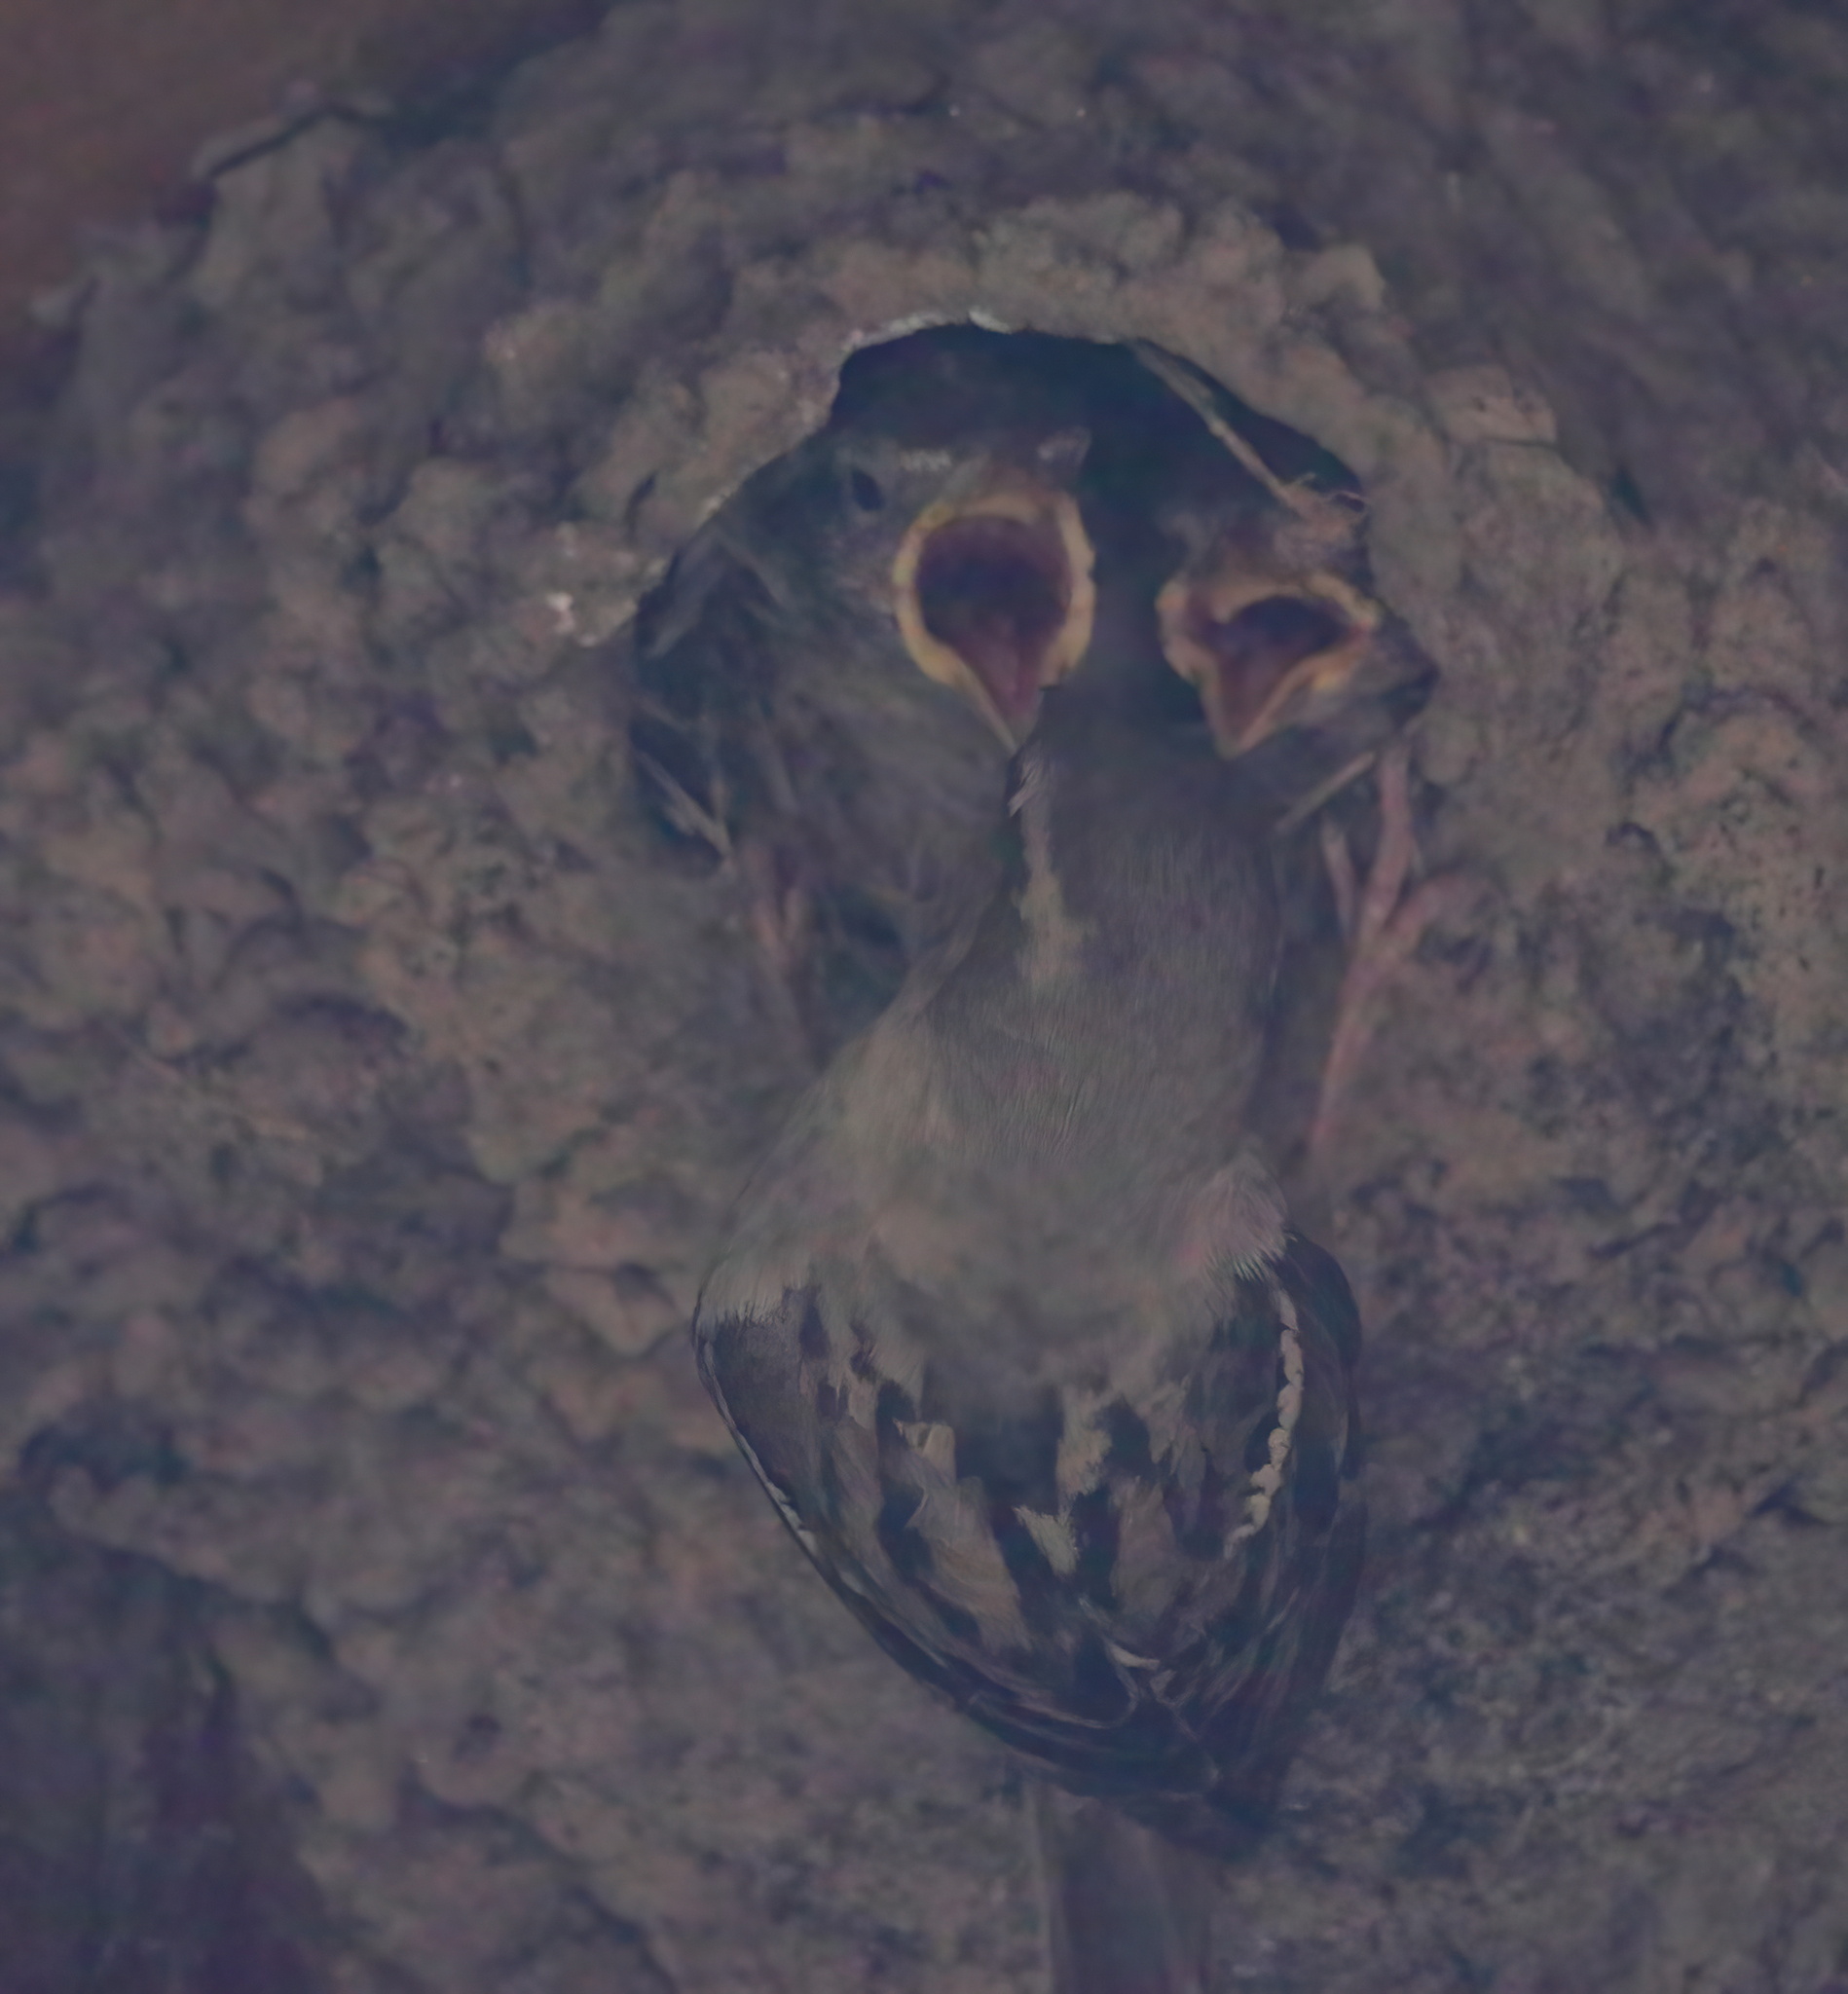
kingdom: Animalia
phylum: Chordata
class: Aves
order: Passeriformes
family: Passeridae
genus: Passer
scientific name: Passer domesticus
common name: House sparrow
